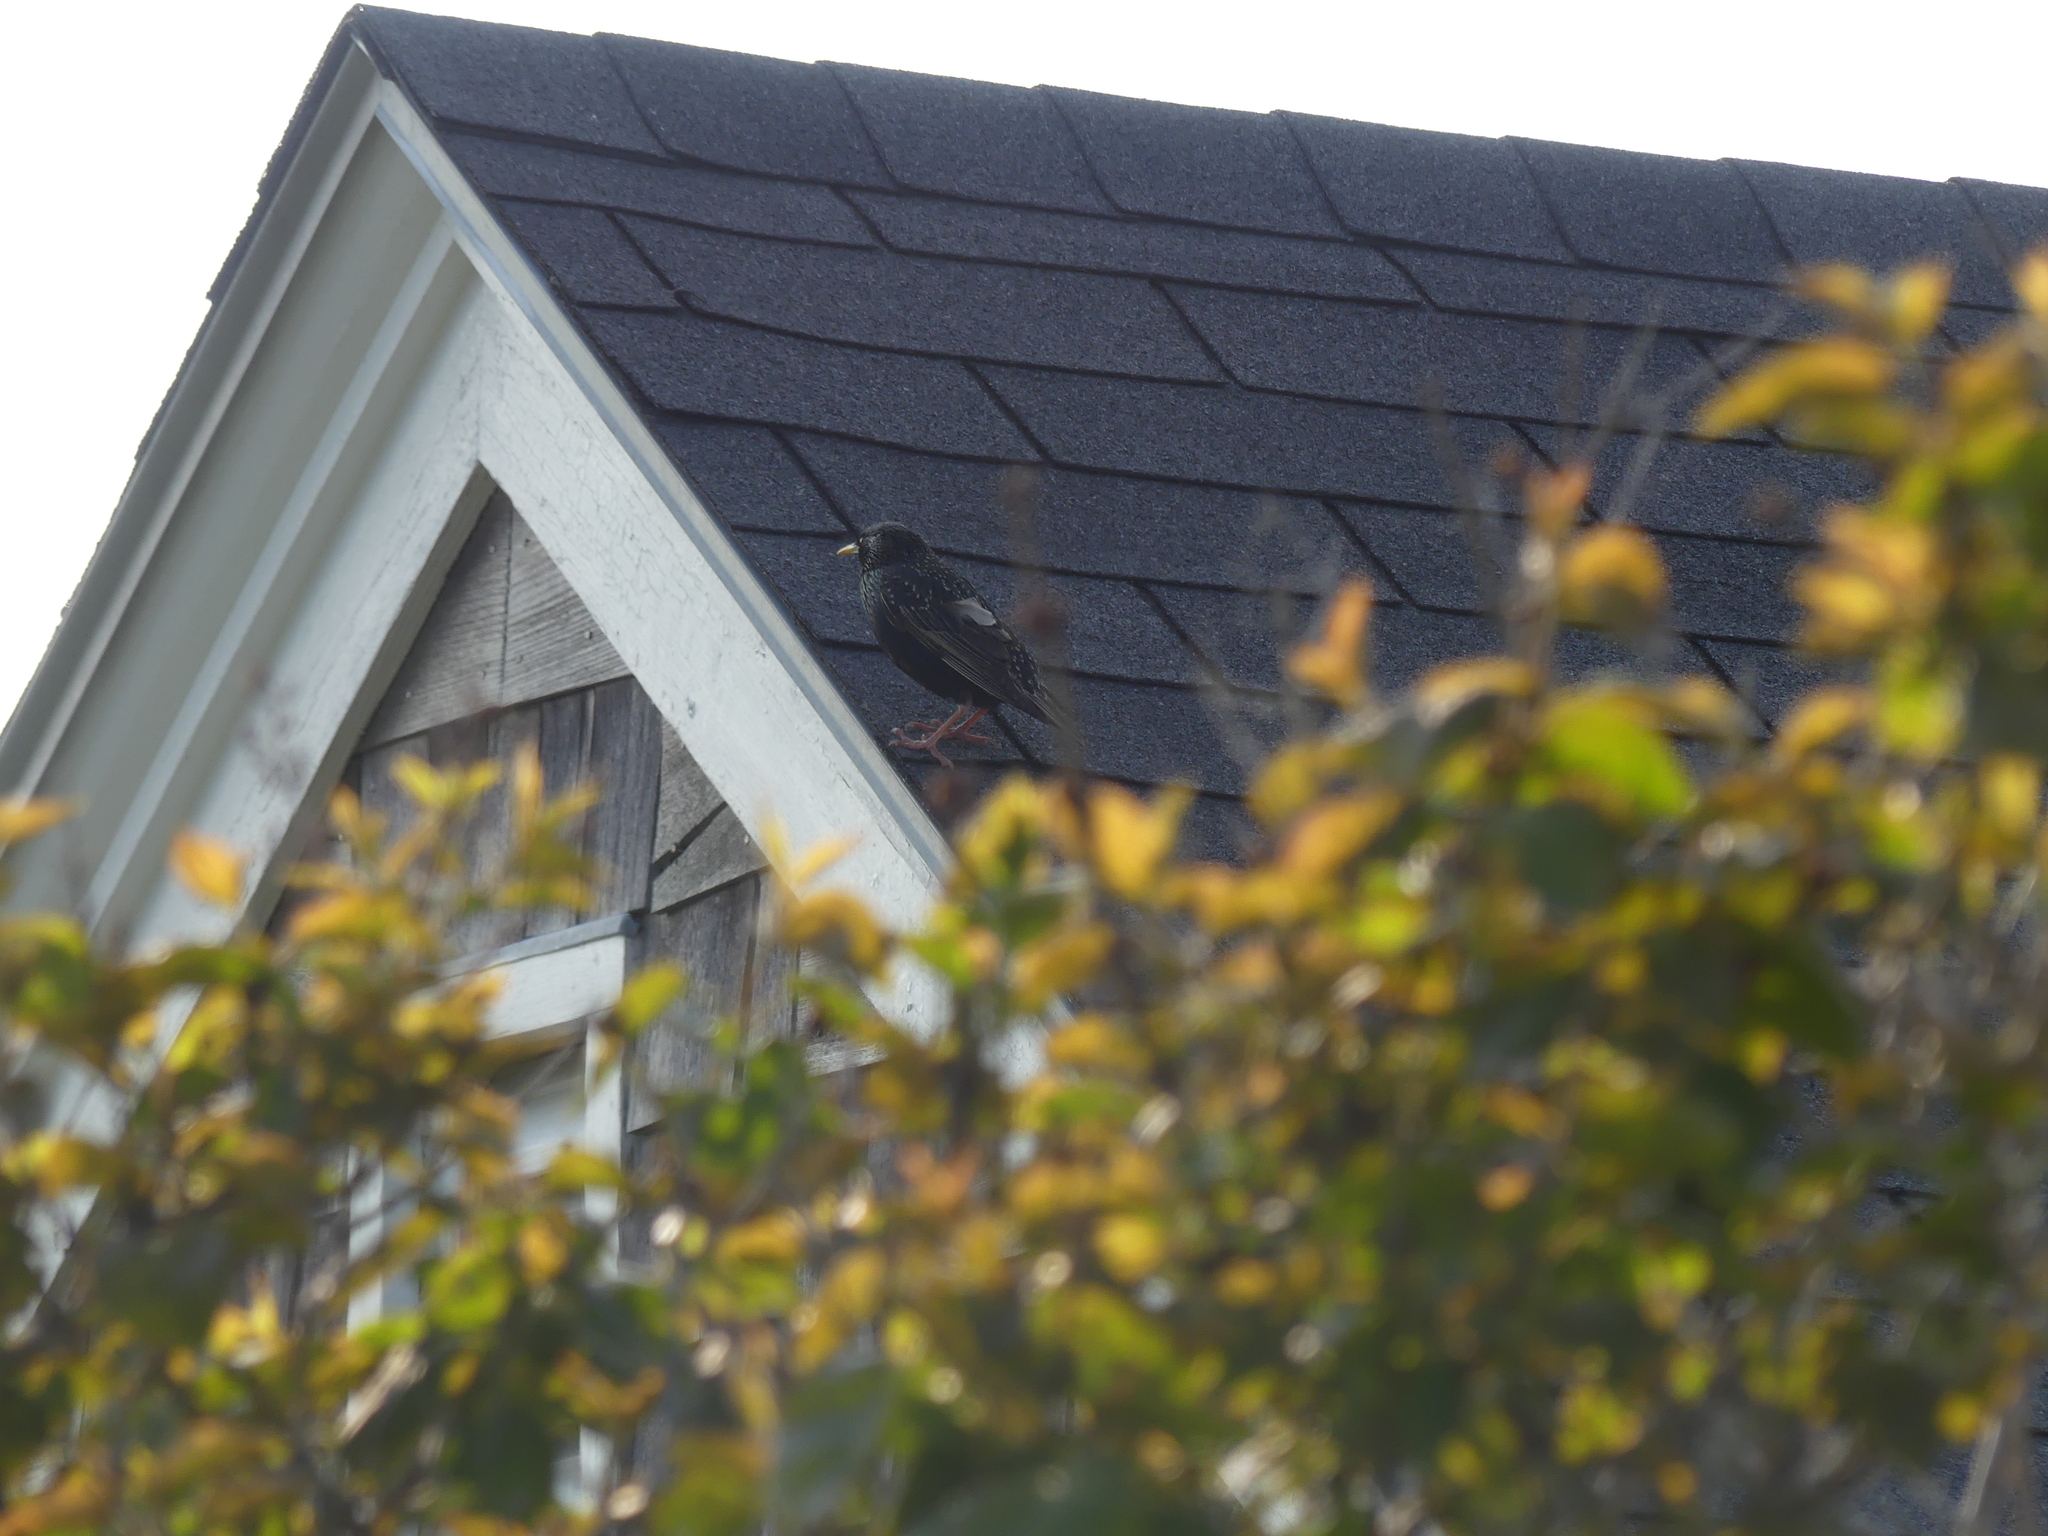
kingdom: Animalia
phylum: Chordata
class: Aves
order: Passeriformes
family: Sturnidae
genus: Sturnus
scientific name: Sturnus vulgaris
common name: Common starling
